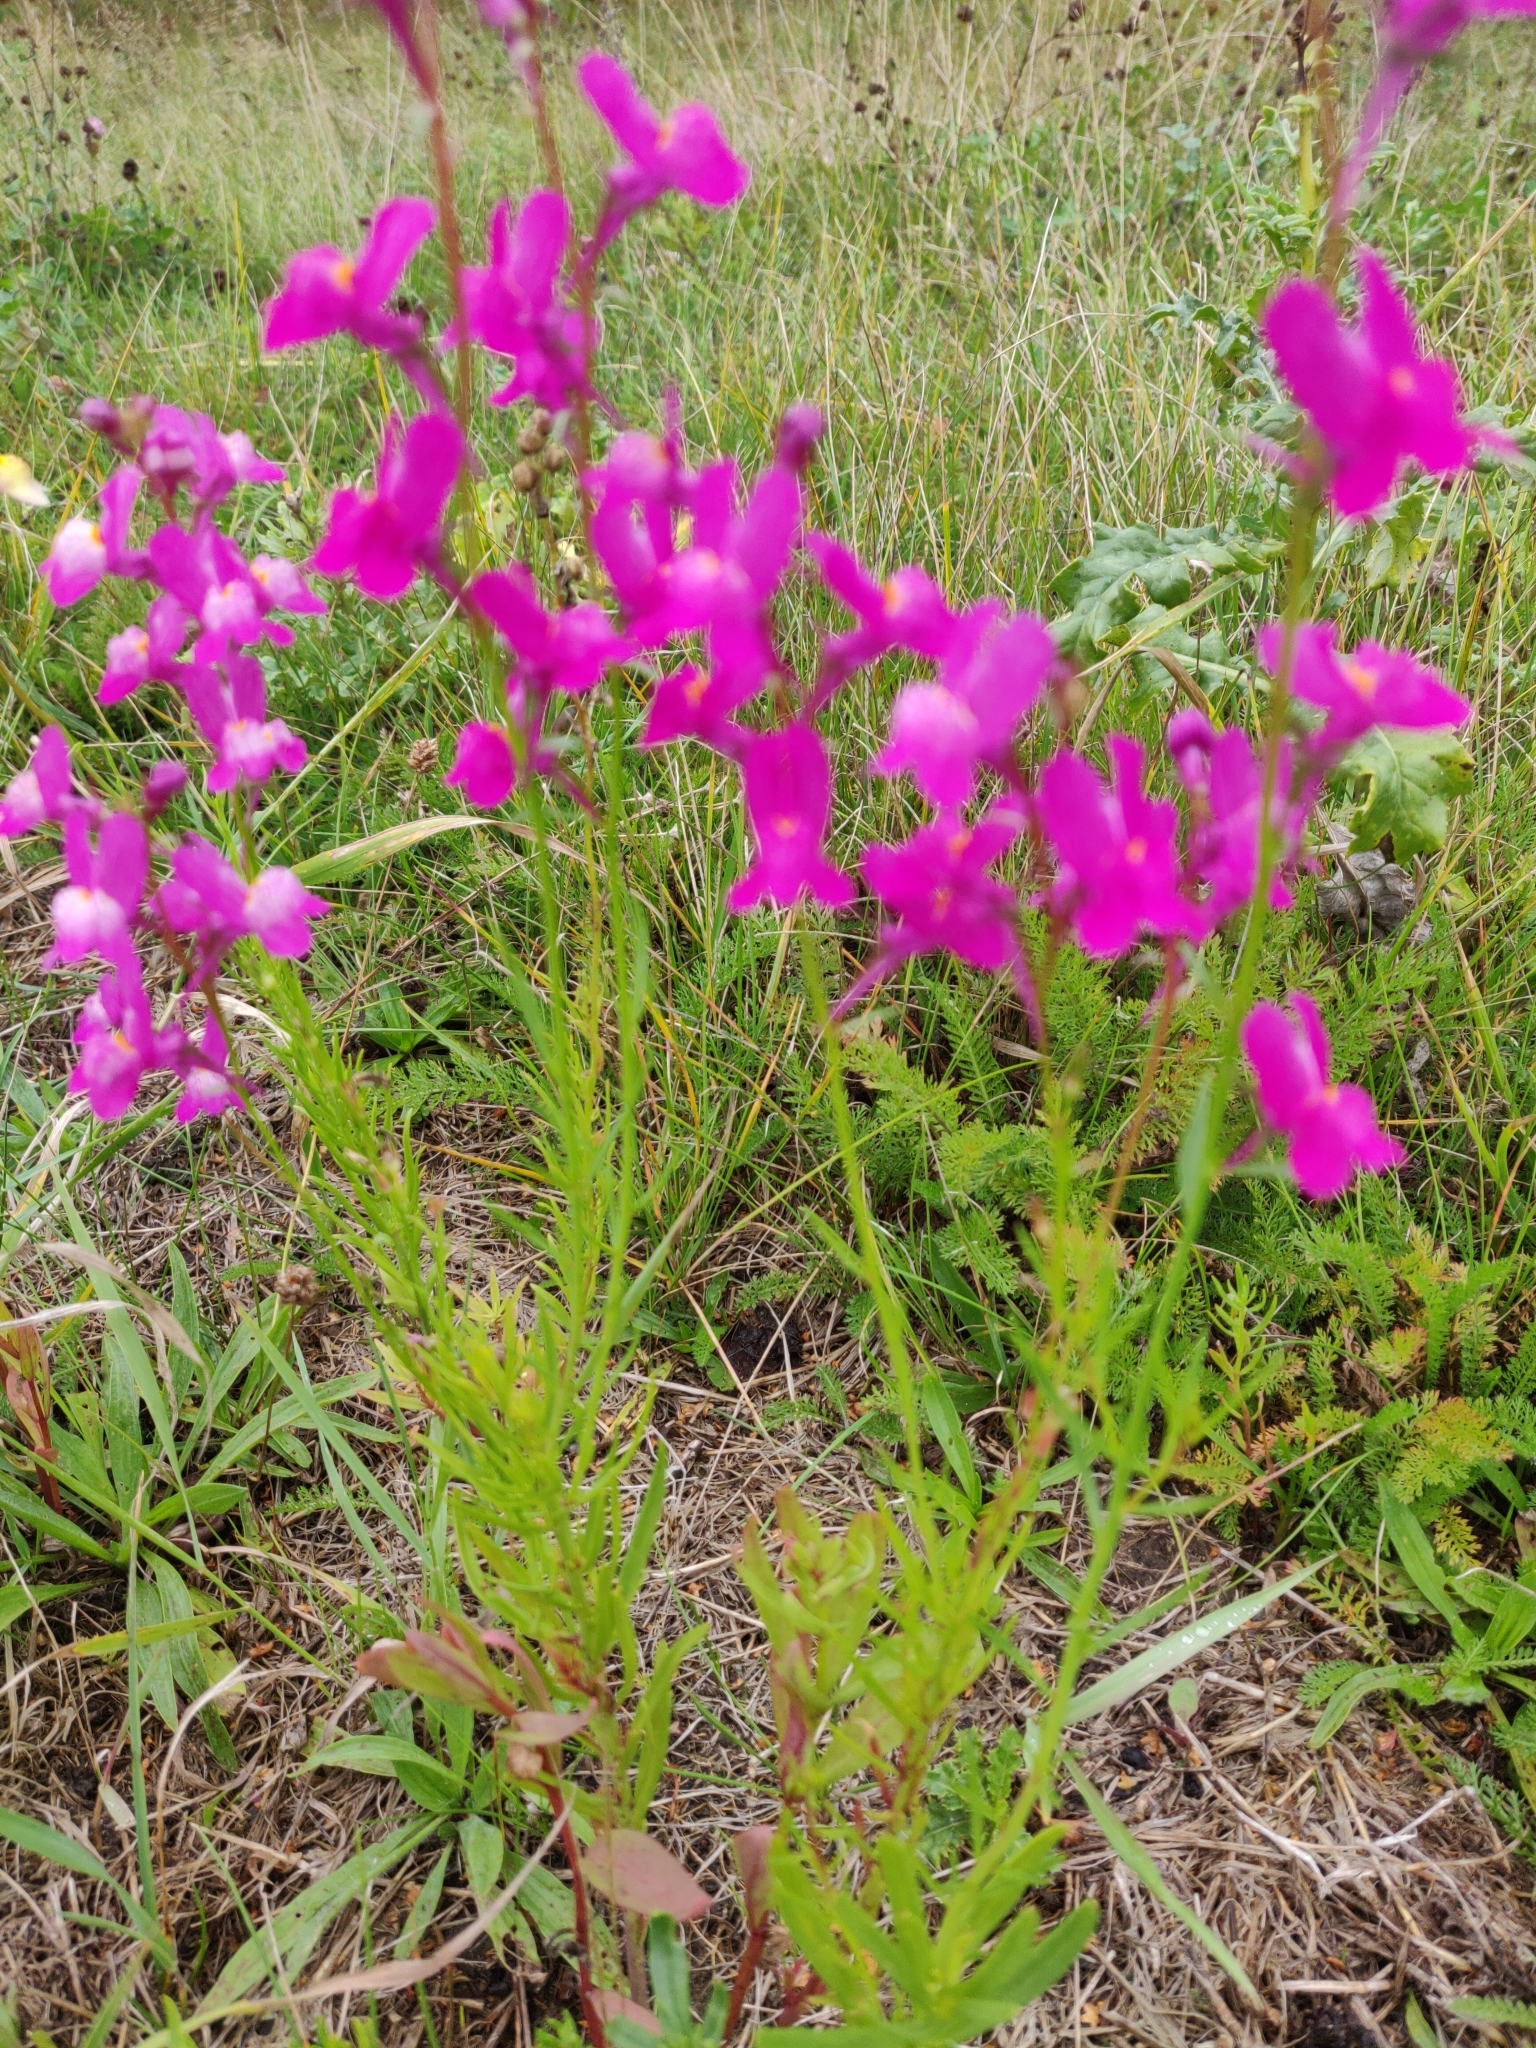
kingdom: Plantae
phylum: Tracheophyta
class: Magnoliopsida
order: Lamiales
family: Plantaginaceae
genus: Linaria
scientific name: Linaria maroccana
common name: Moroccan toadflax
